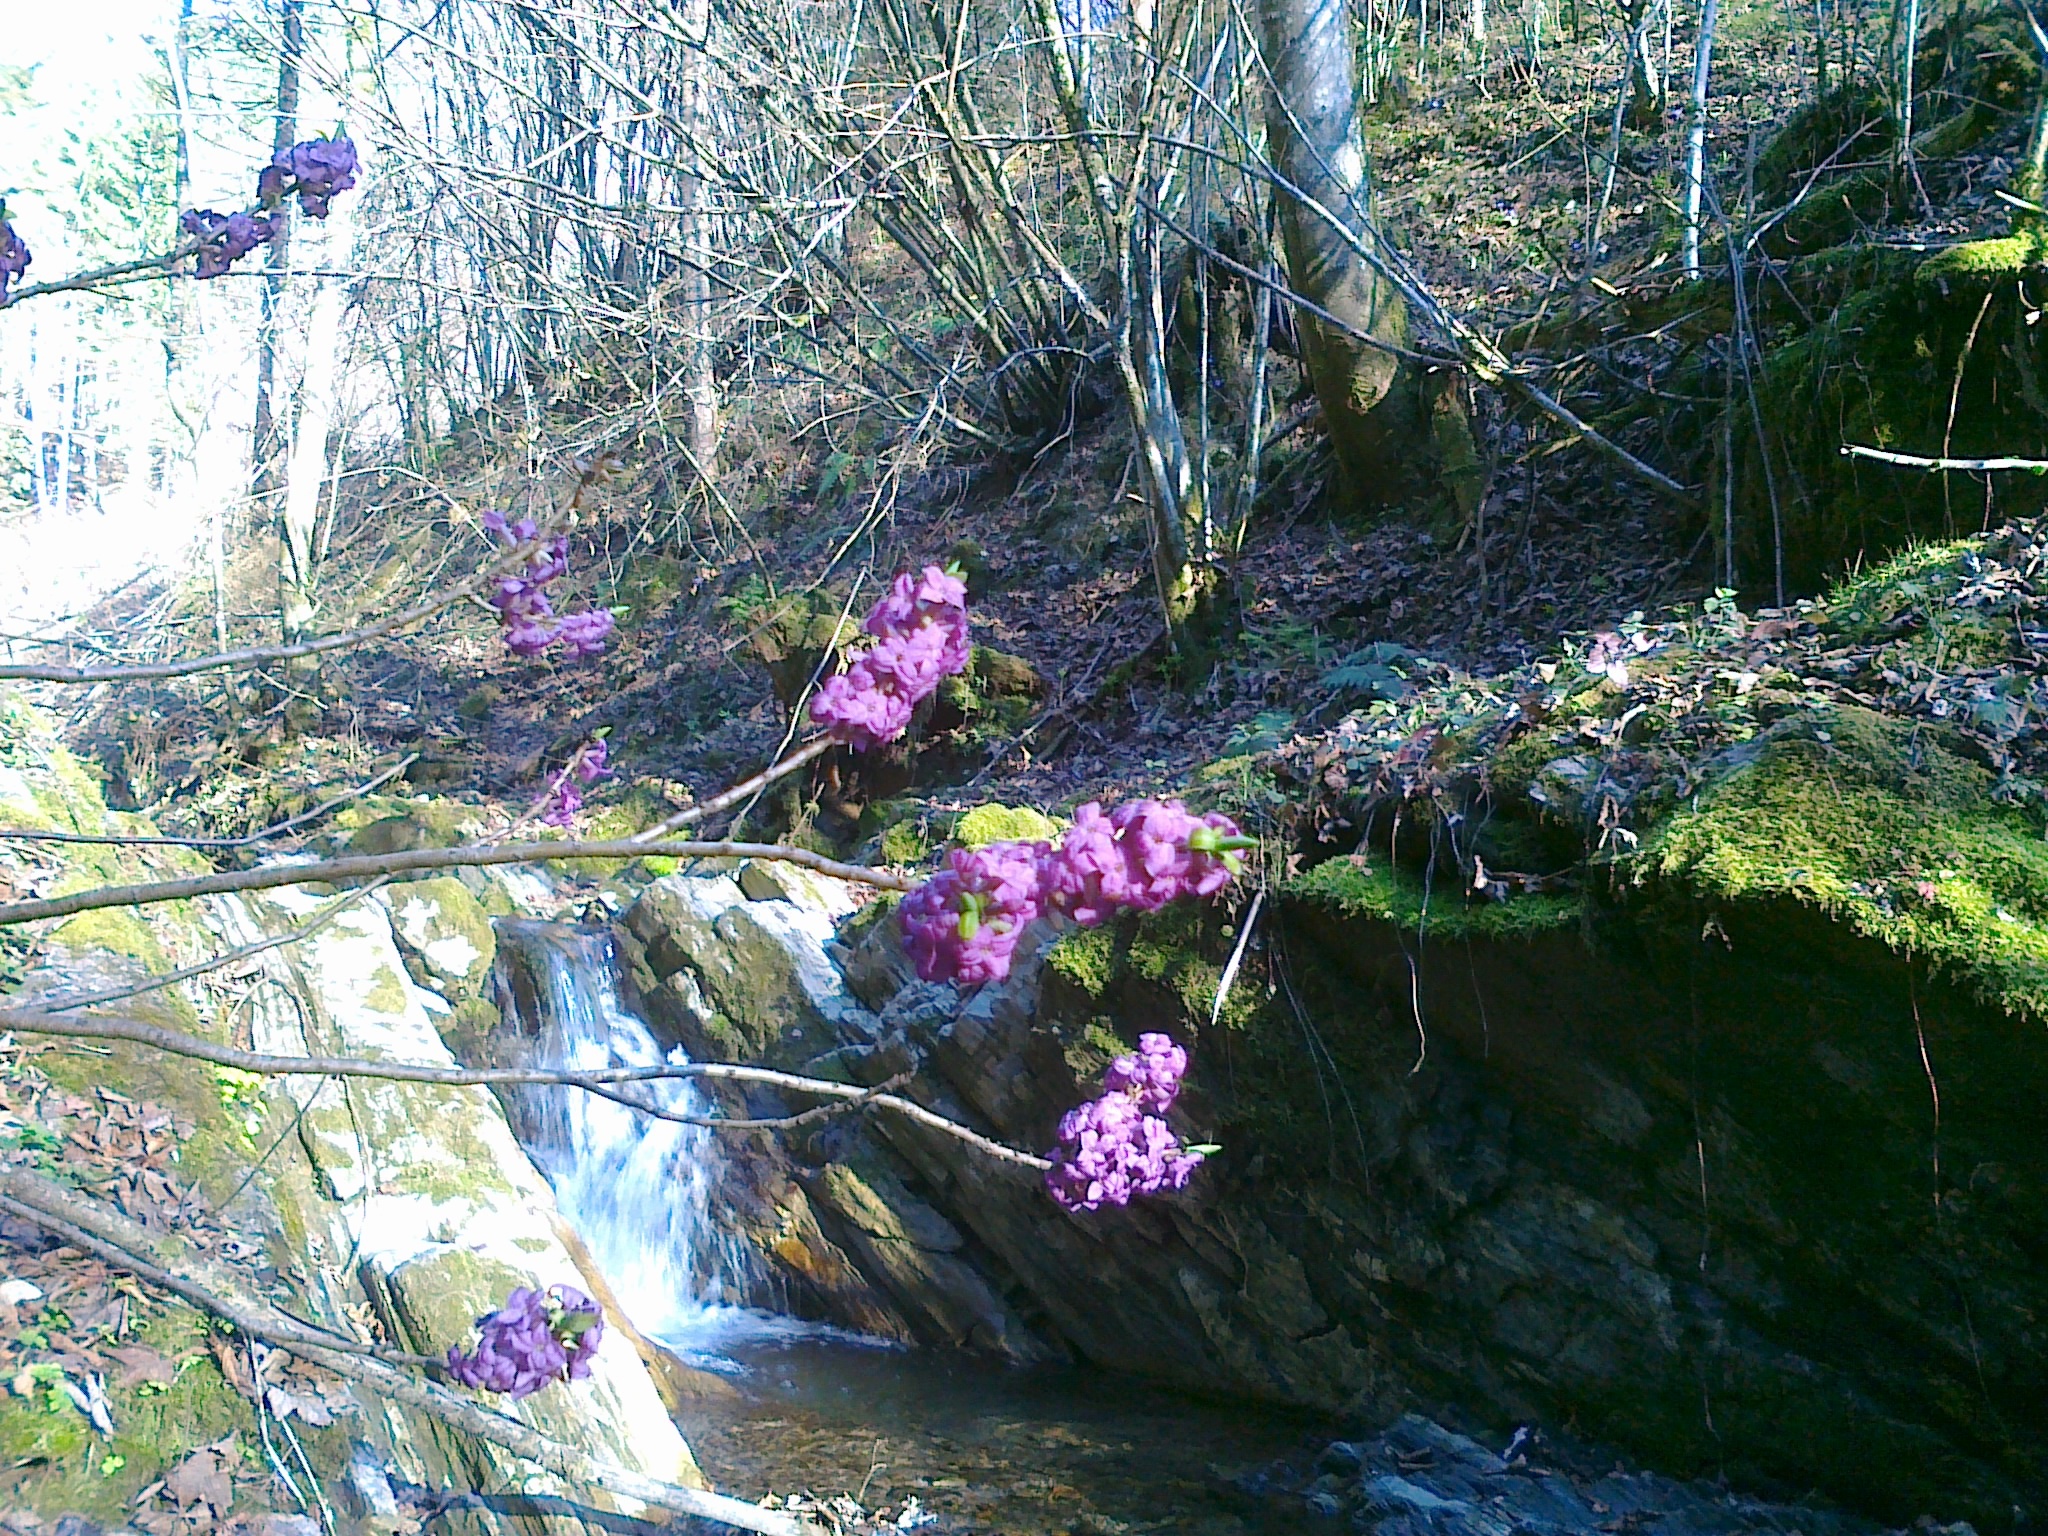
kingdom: Plantae
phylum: Tracheophyta
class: Magnoliopsida
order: Malvales
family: Thymelaeaceae
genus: Daphne
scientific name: Daphne mezereum
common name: Mezereon
